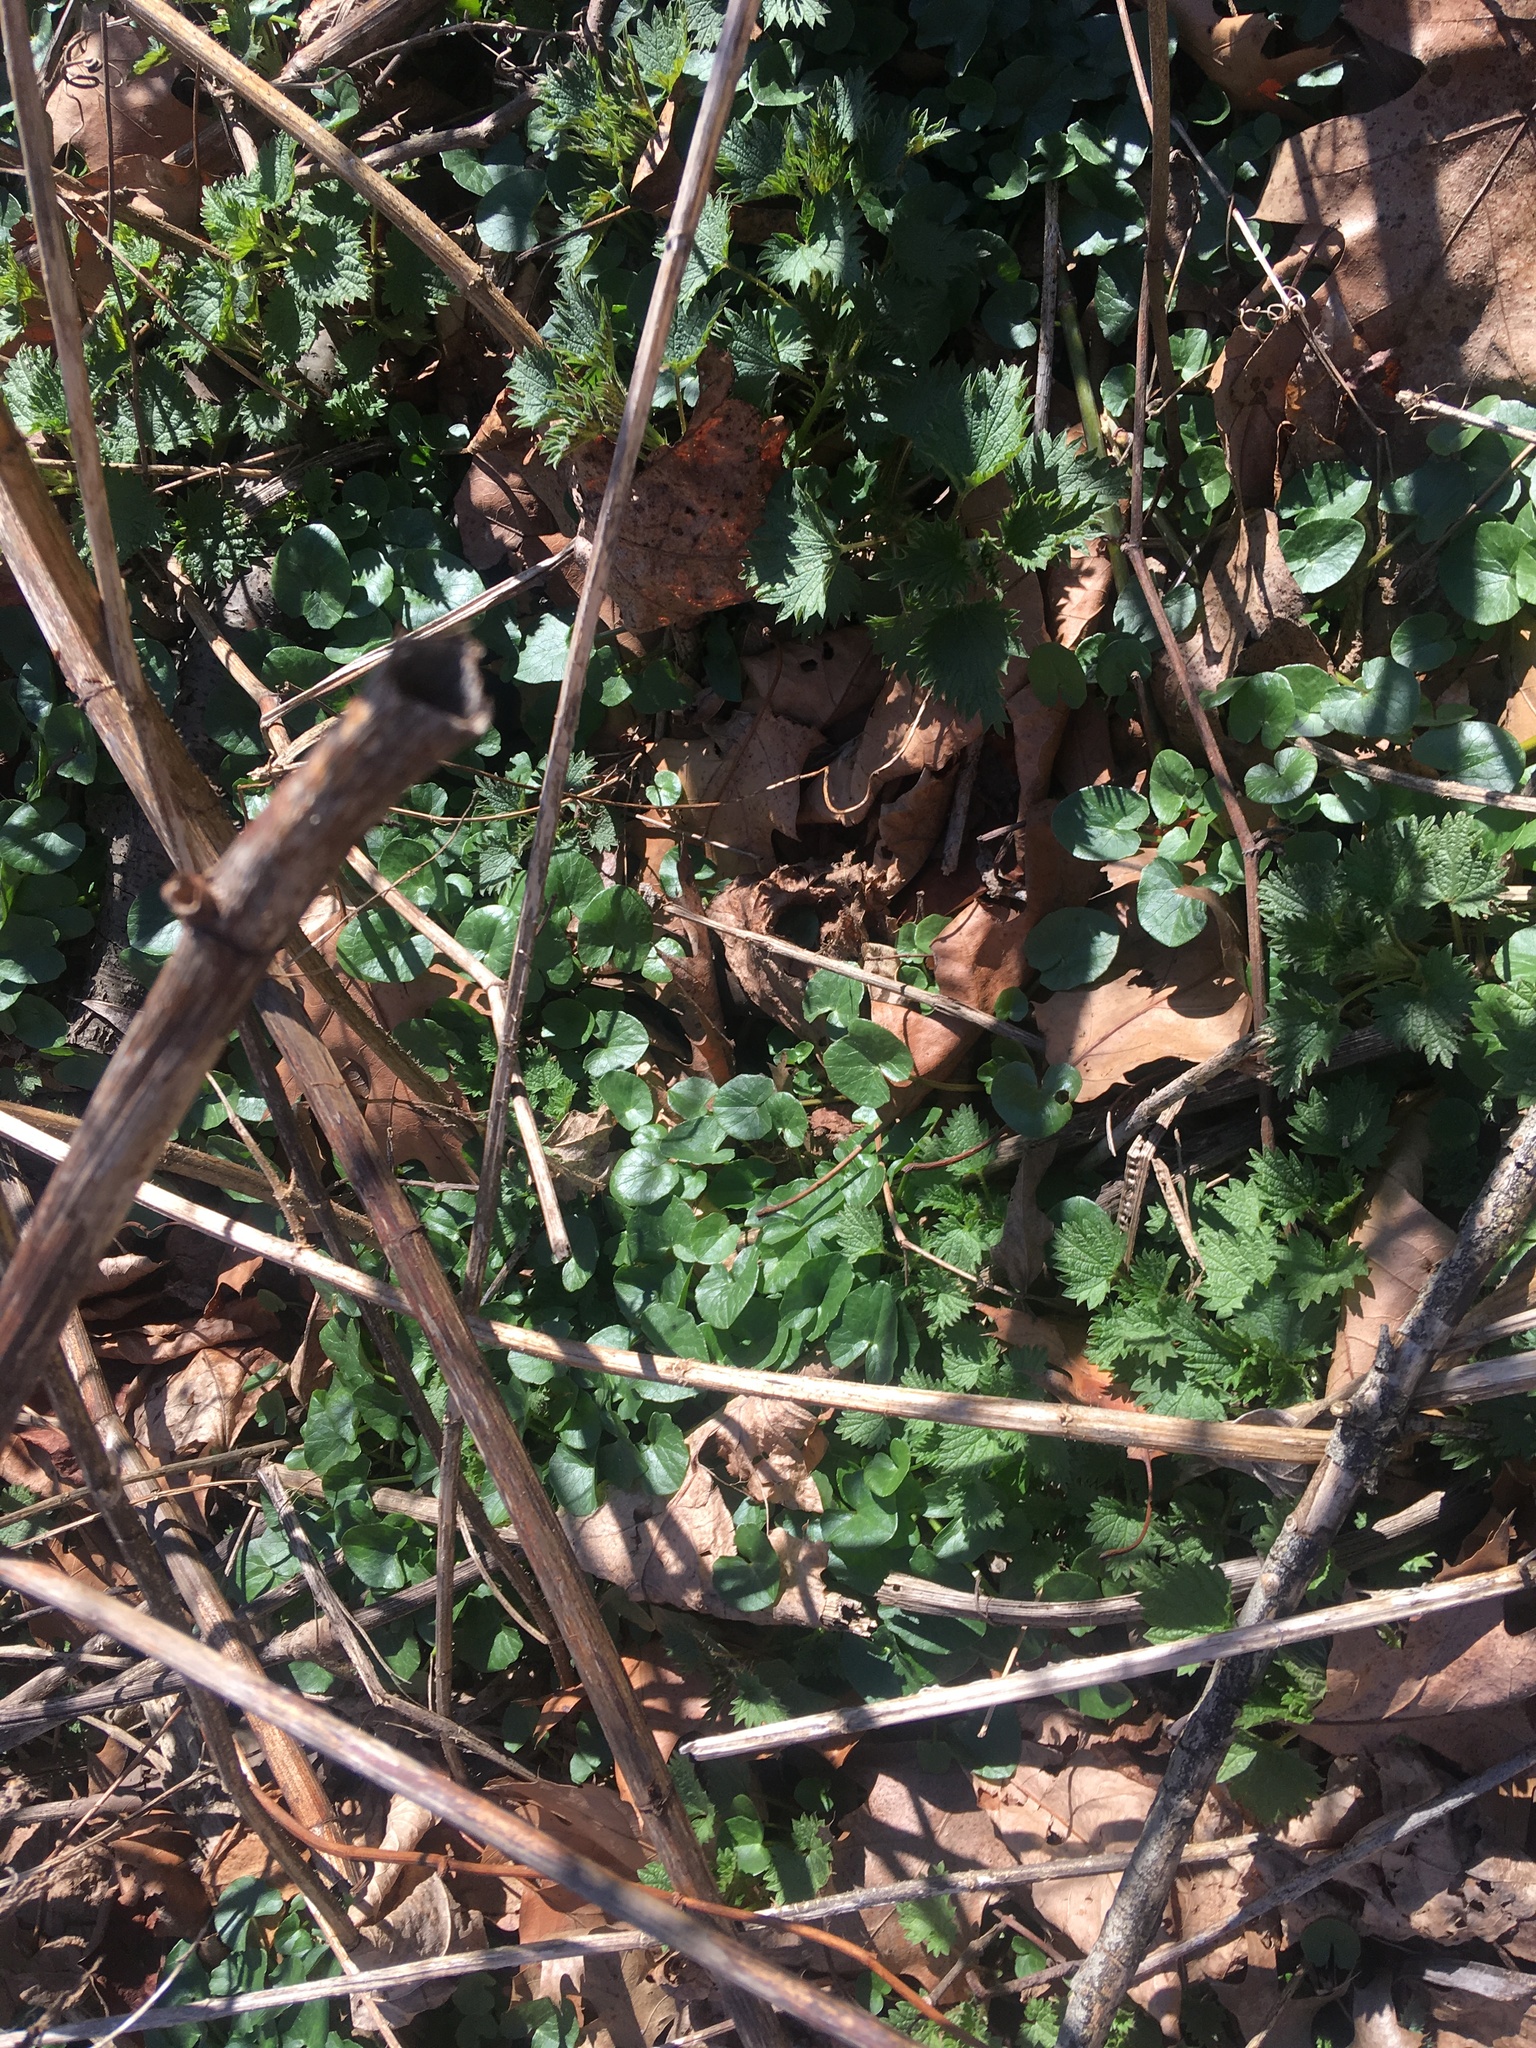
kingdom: Plantae
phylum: Tracheophyta
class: Magnoliopsida
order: Ranunculales
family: Ranunculaceae
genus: Ficaria
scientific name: Ficaria verna
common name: Lesser celandine
